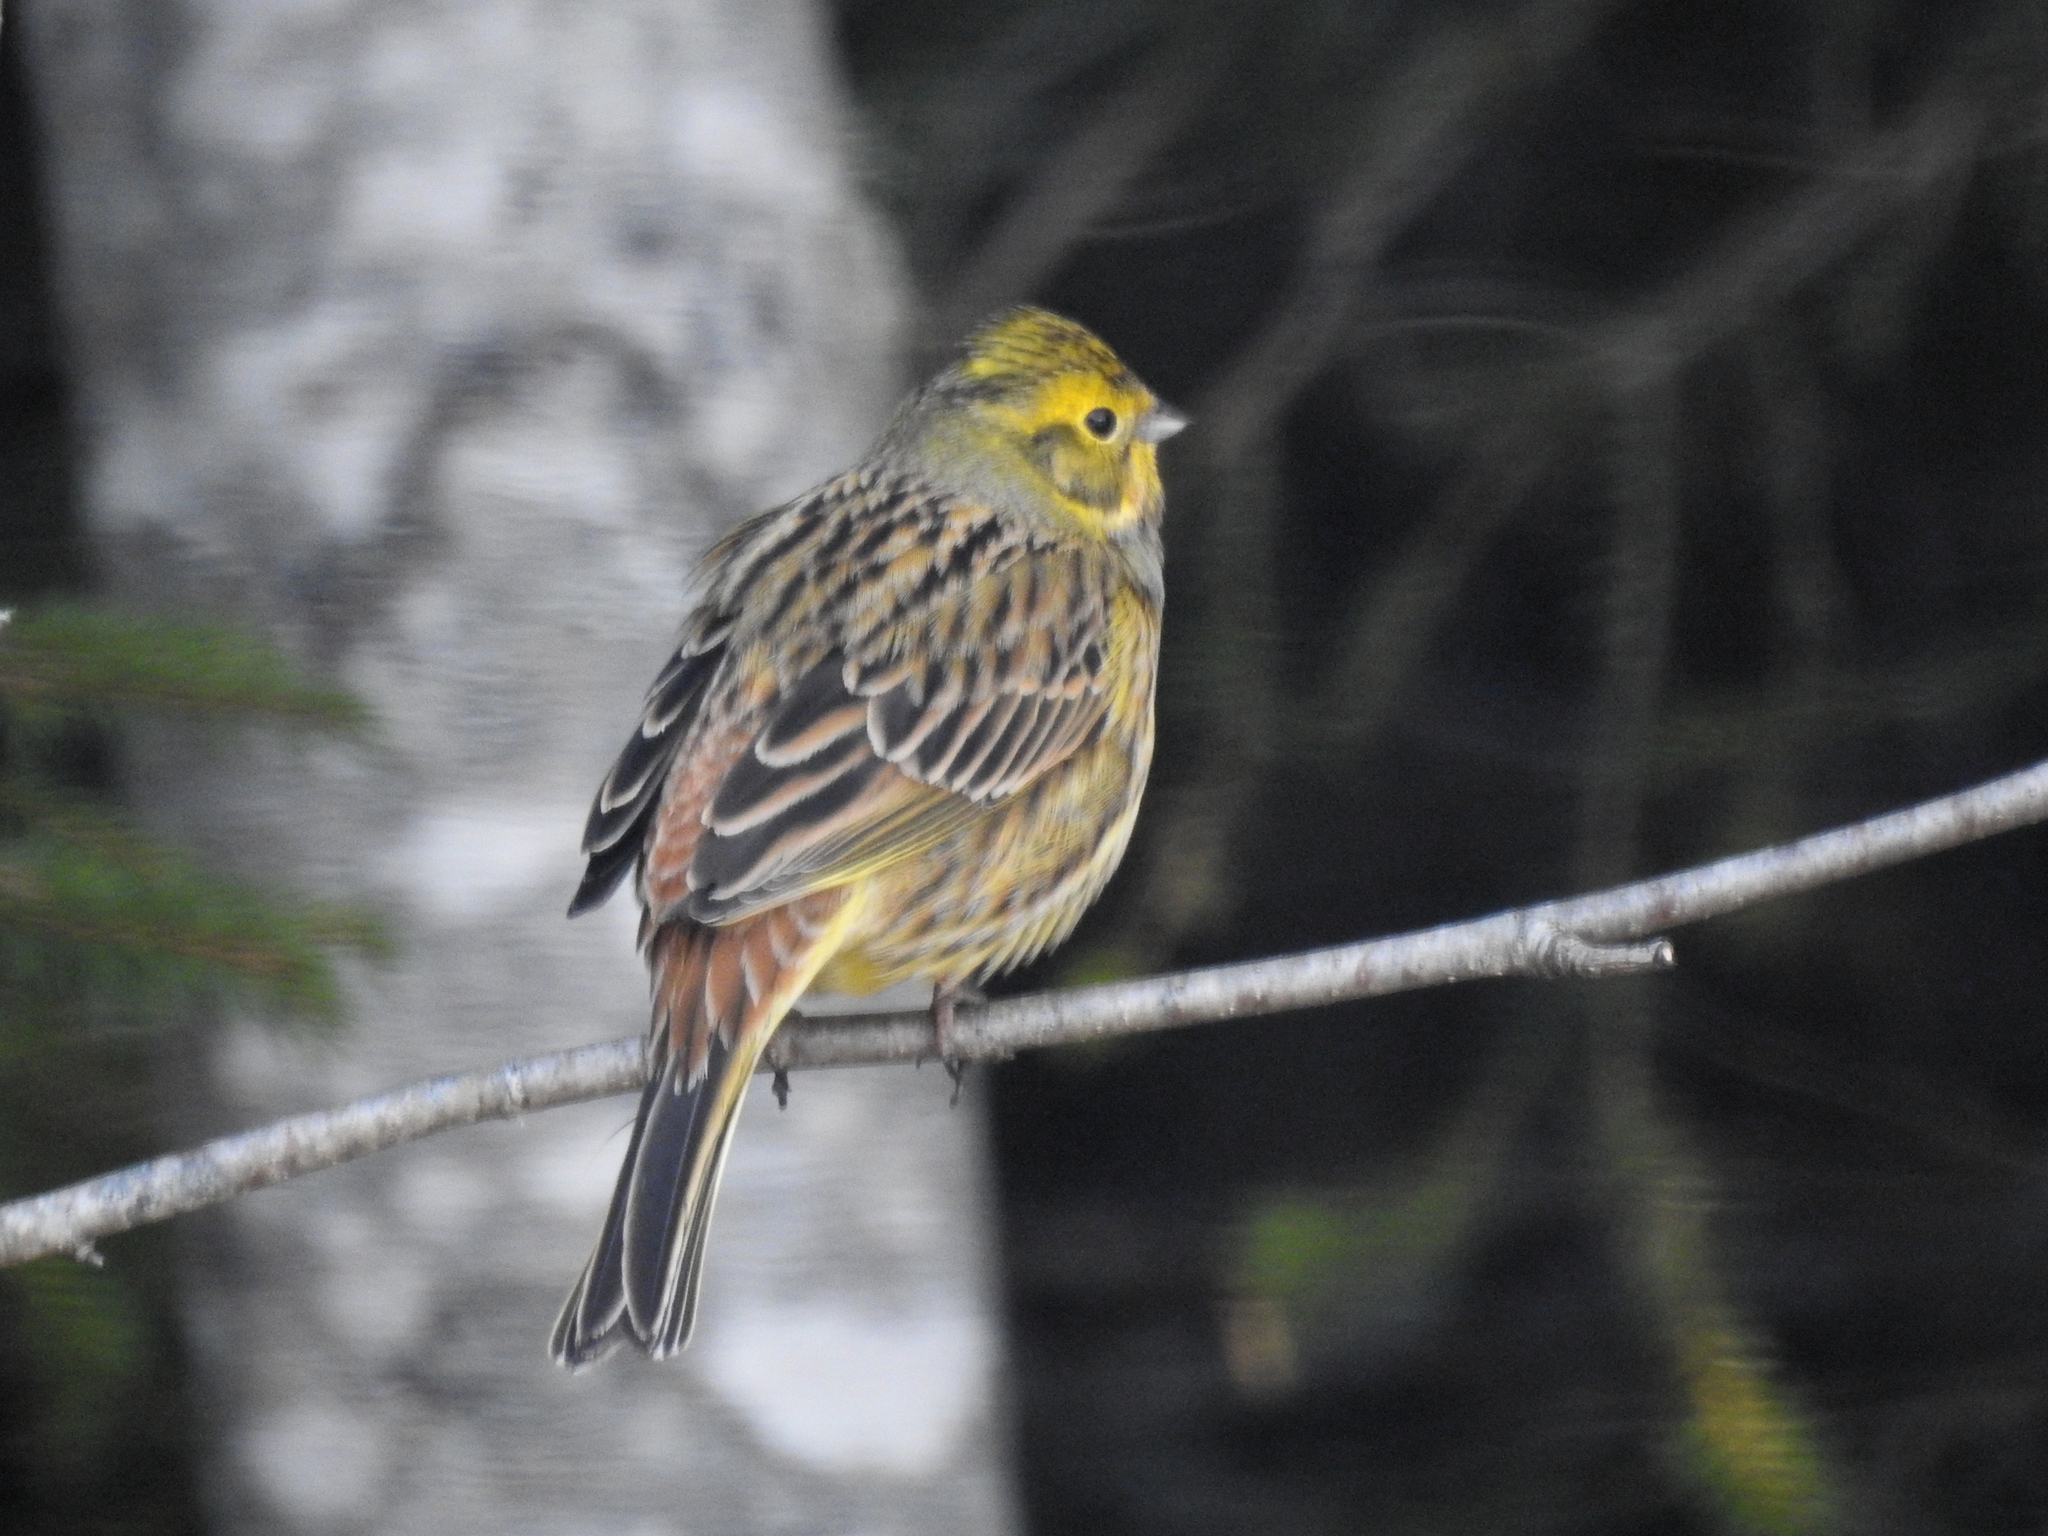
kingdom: Animalia
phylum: Chordata
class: Aves
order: Passeriformes
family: Emberizidae
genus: Emberiza
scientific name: Emberiza citrinella
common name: Yellowhammer
